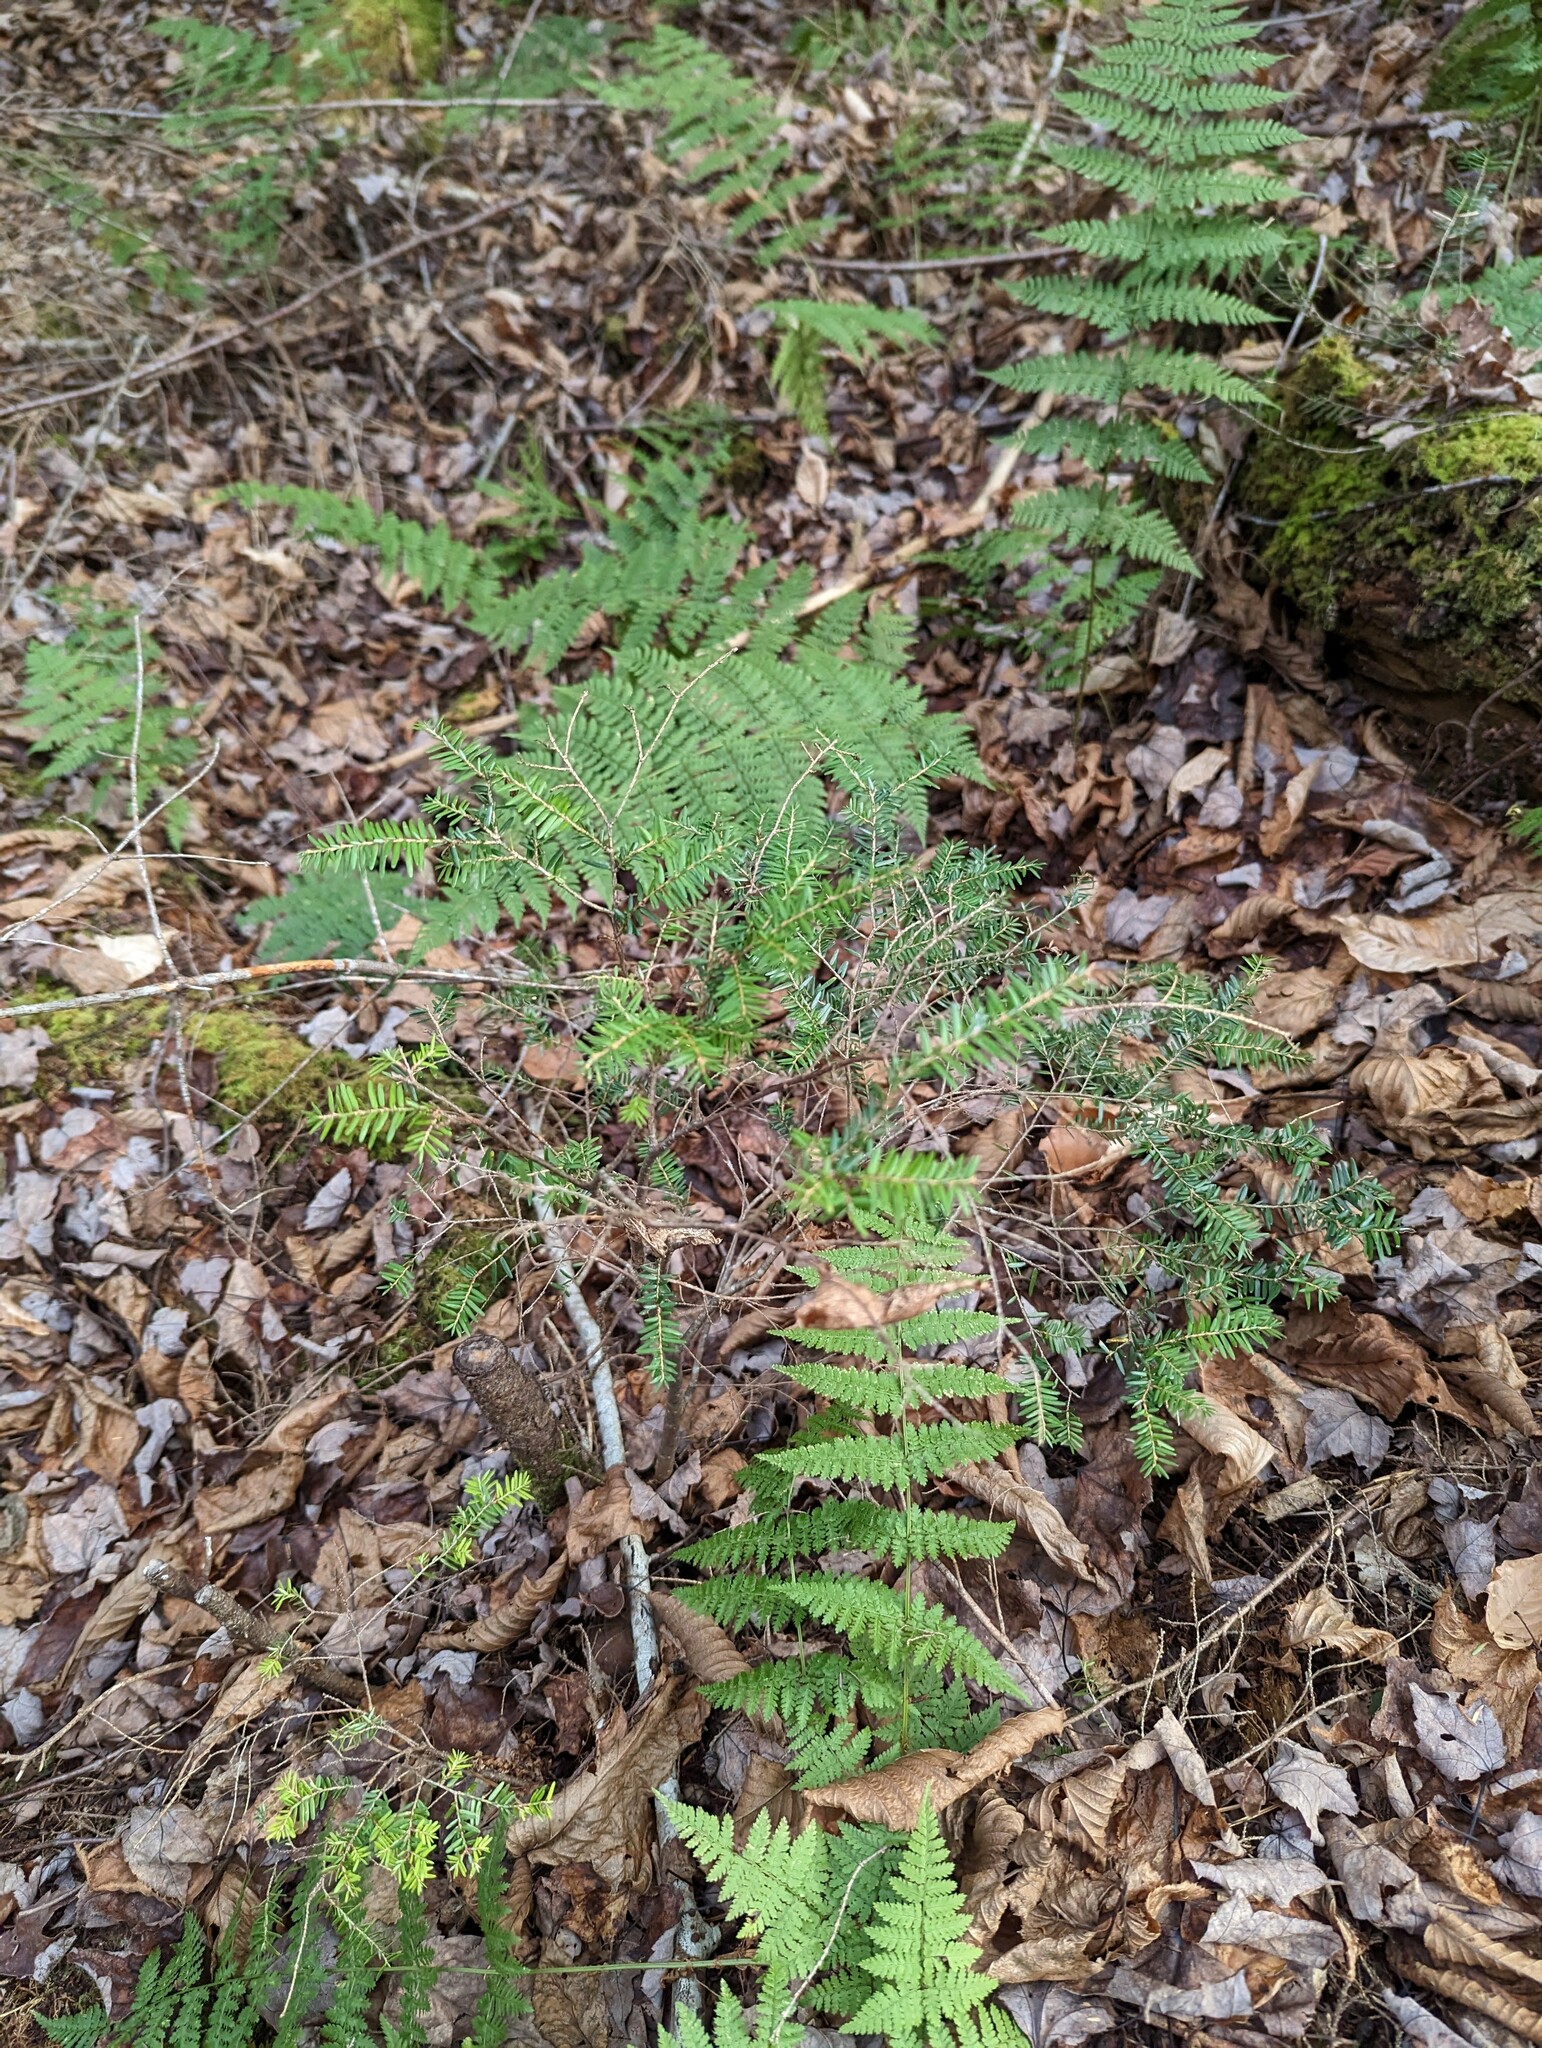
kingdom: Plantae
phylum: Tracheophyta
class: Pinopsida
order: Pinales
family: Pinaceae
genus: Tsuga
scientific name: Tsuga canadensis
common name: Eastern hemlock
